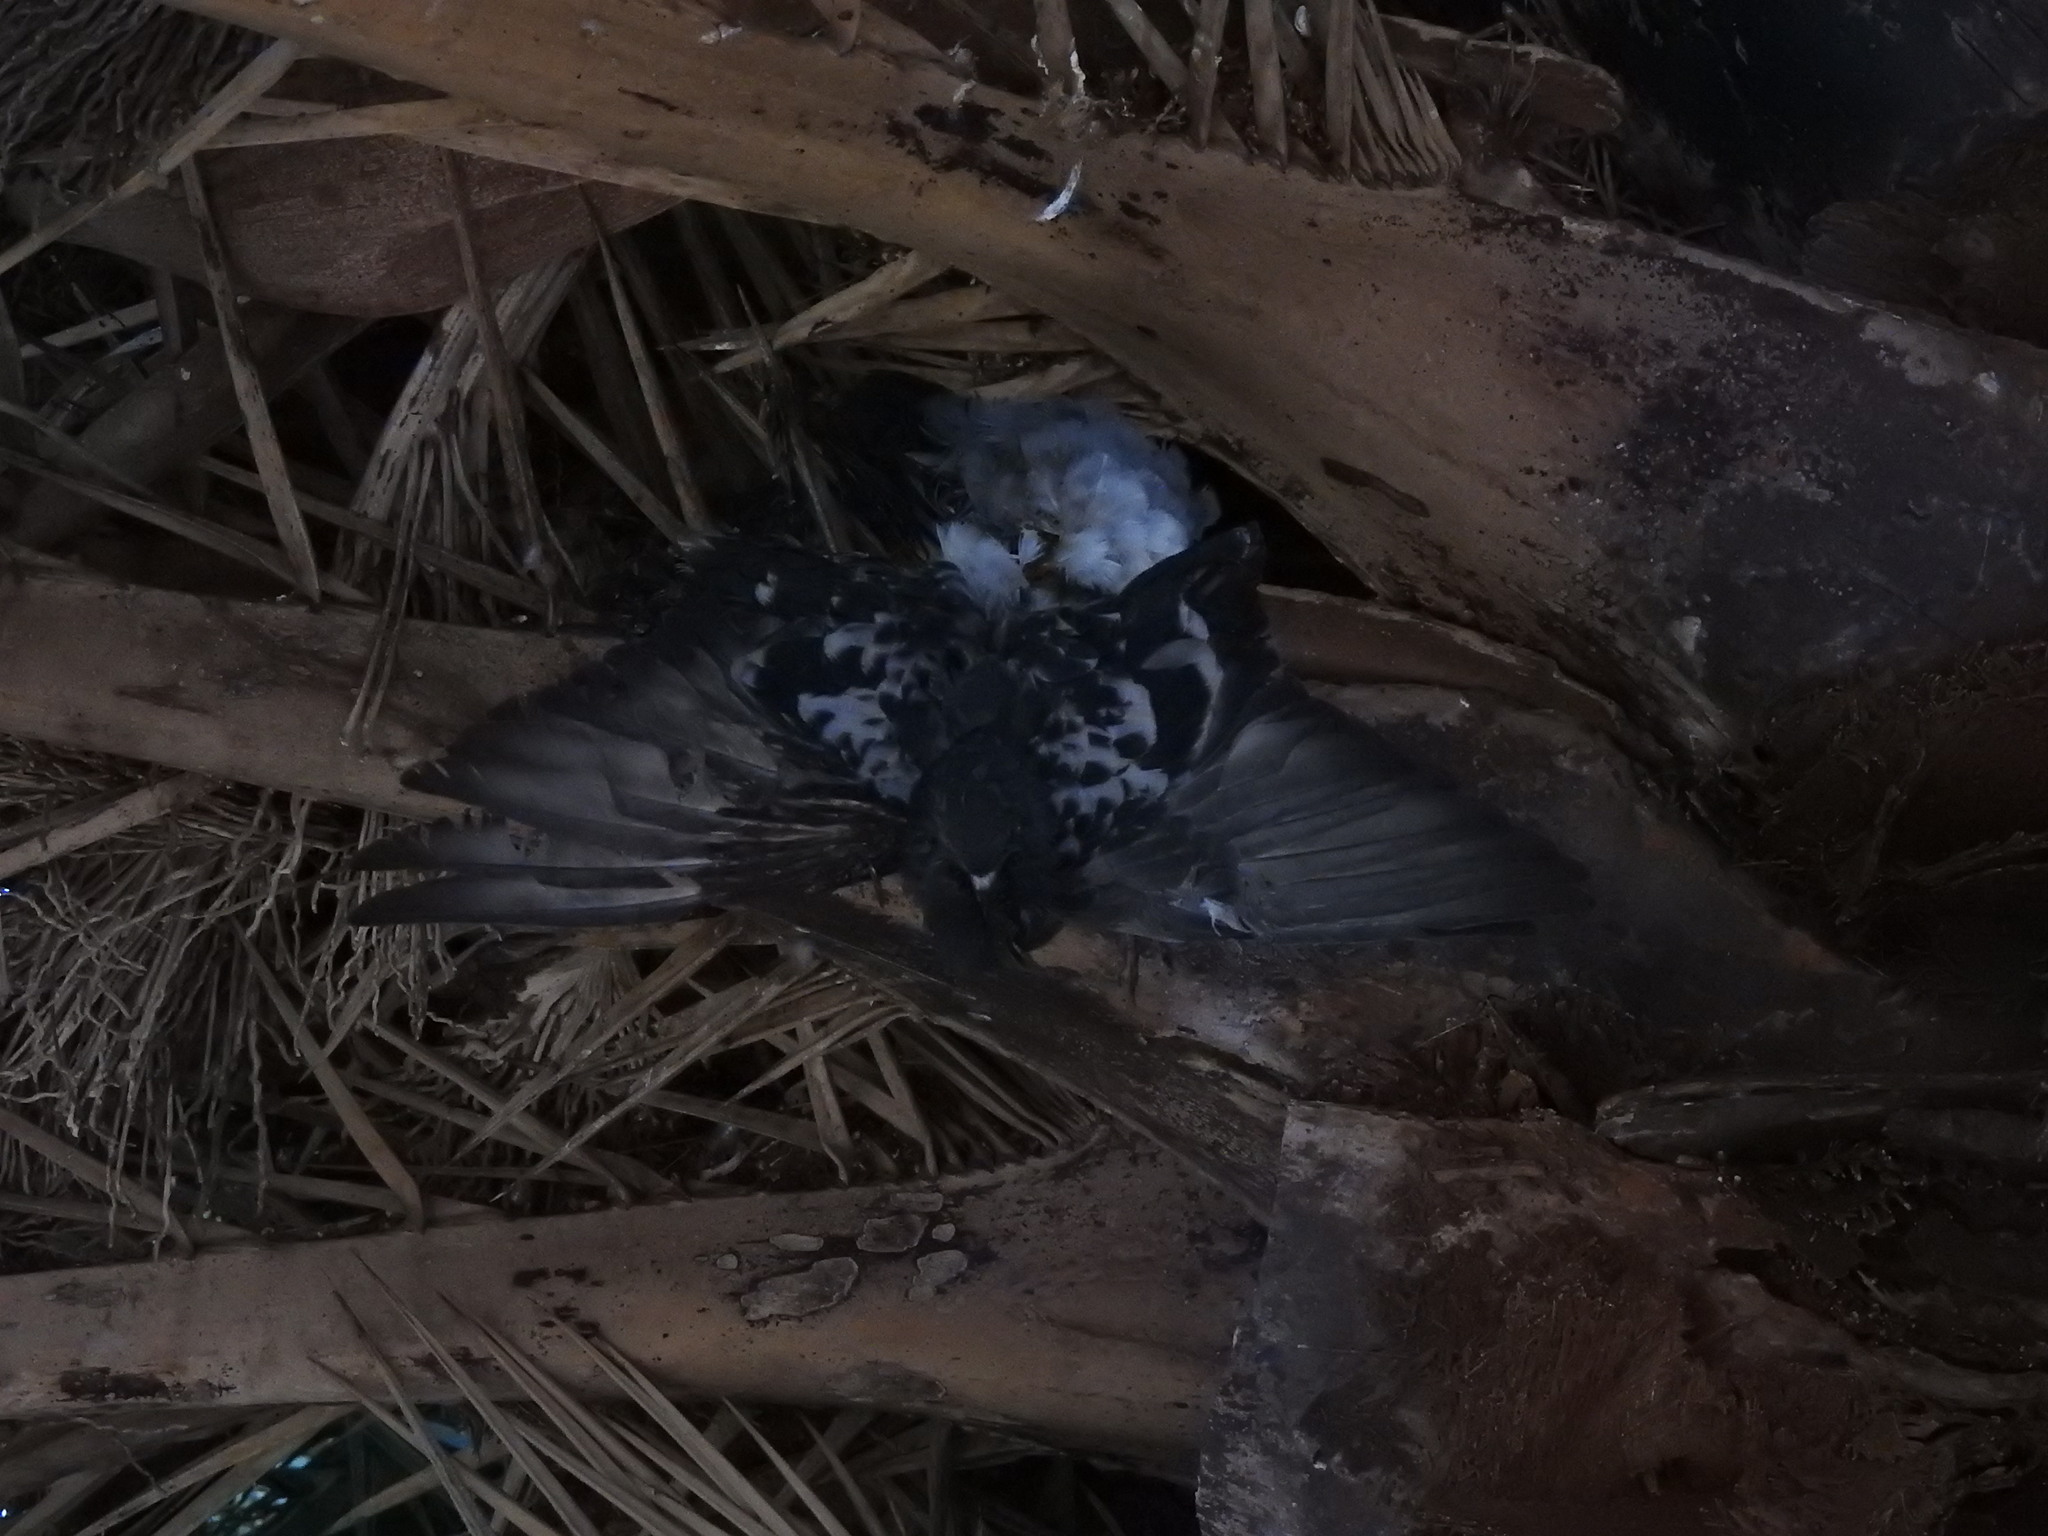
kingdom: Animalia
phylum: Chordata
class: Aves
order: Columbiformes
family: Columbidae
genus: Columba
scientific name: Columba livia
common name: Rock pigeon
